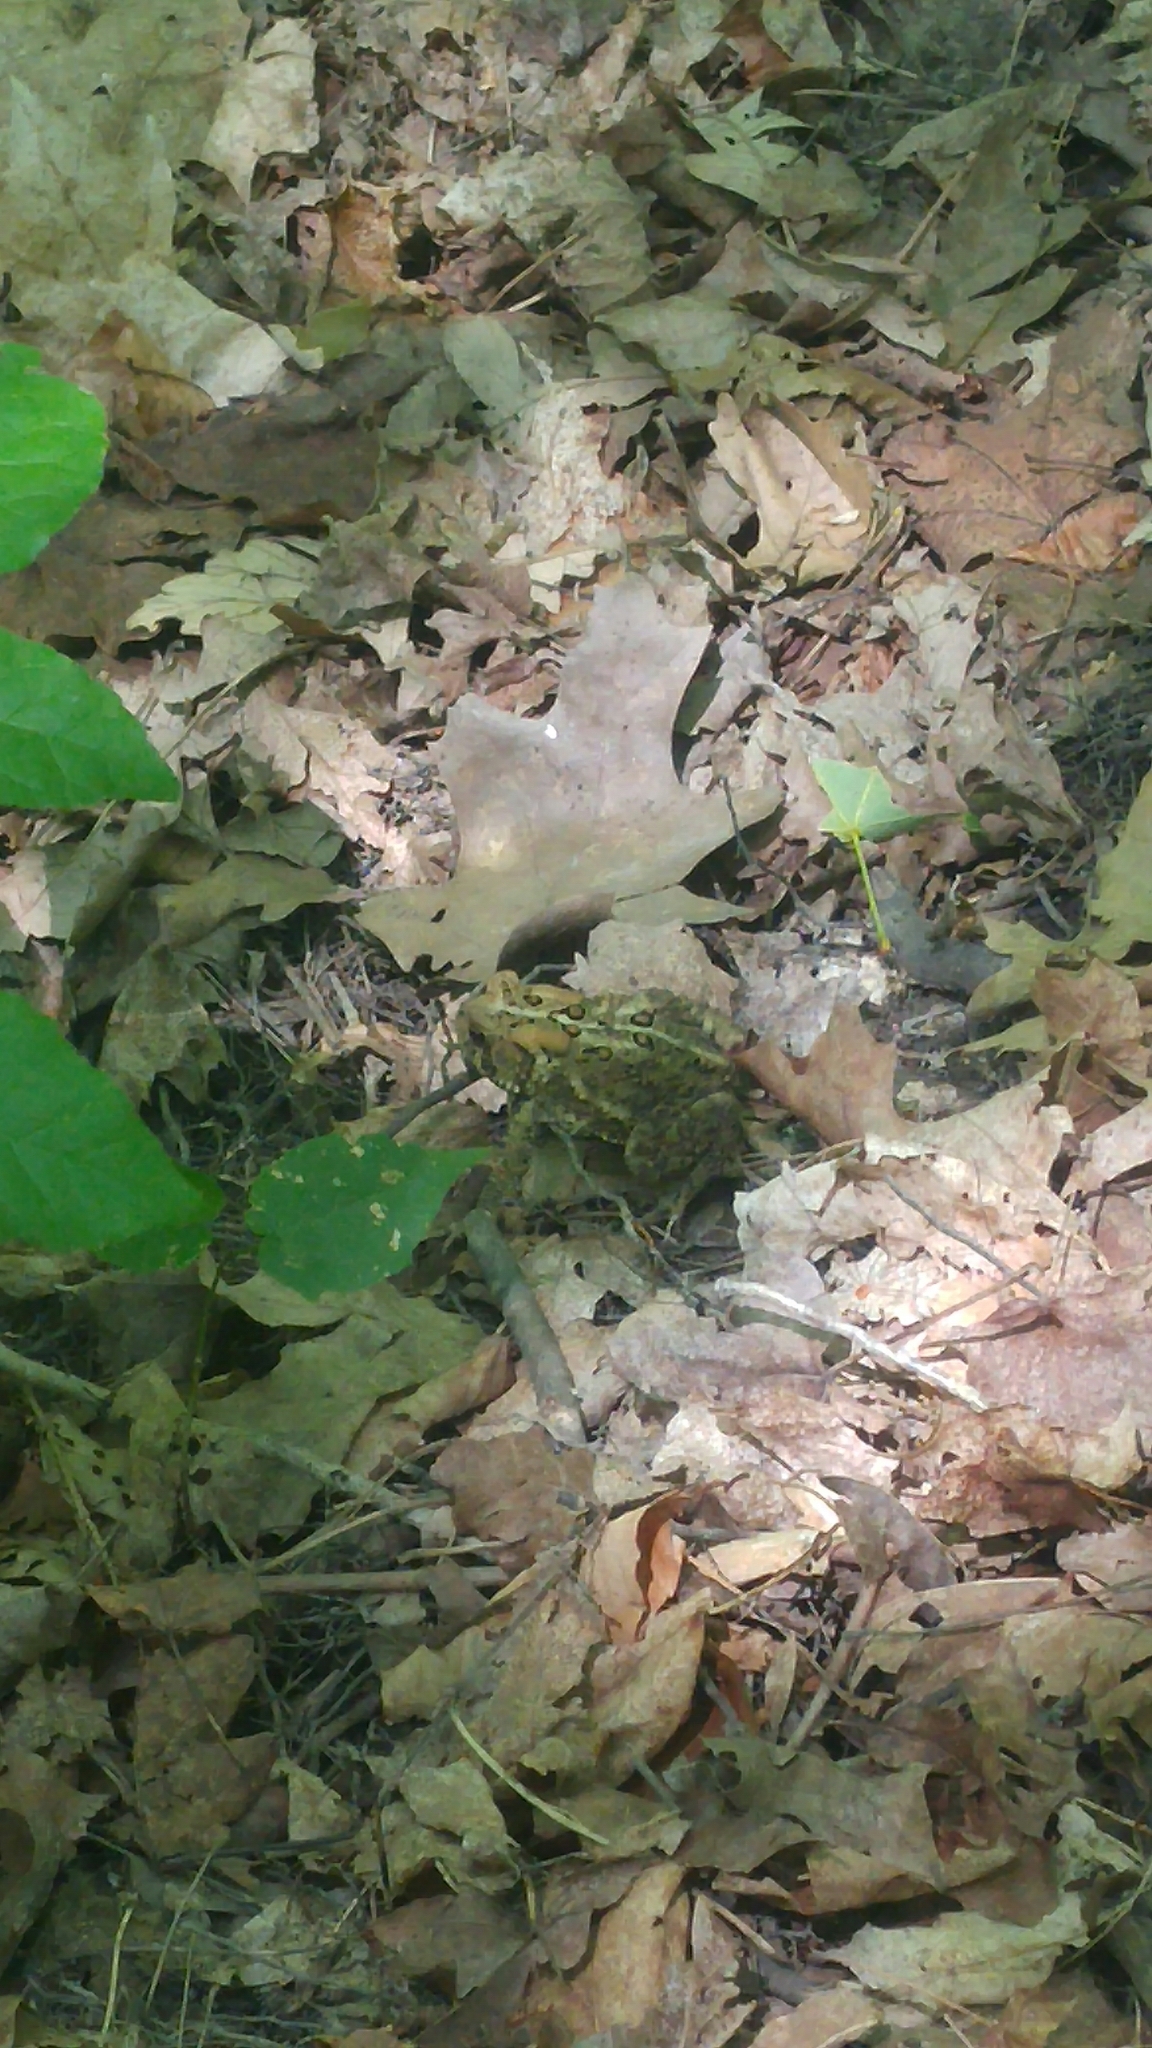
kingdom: Animalia
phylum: Chordata
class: Amphibia
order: Anura
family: Bufonidae
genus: Anaxyrus
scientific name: Anaxyrus americanus
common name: American toad
